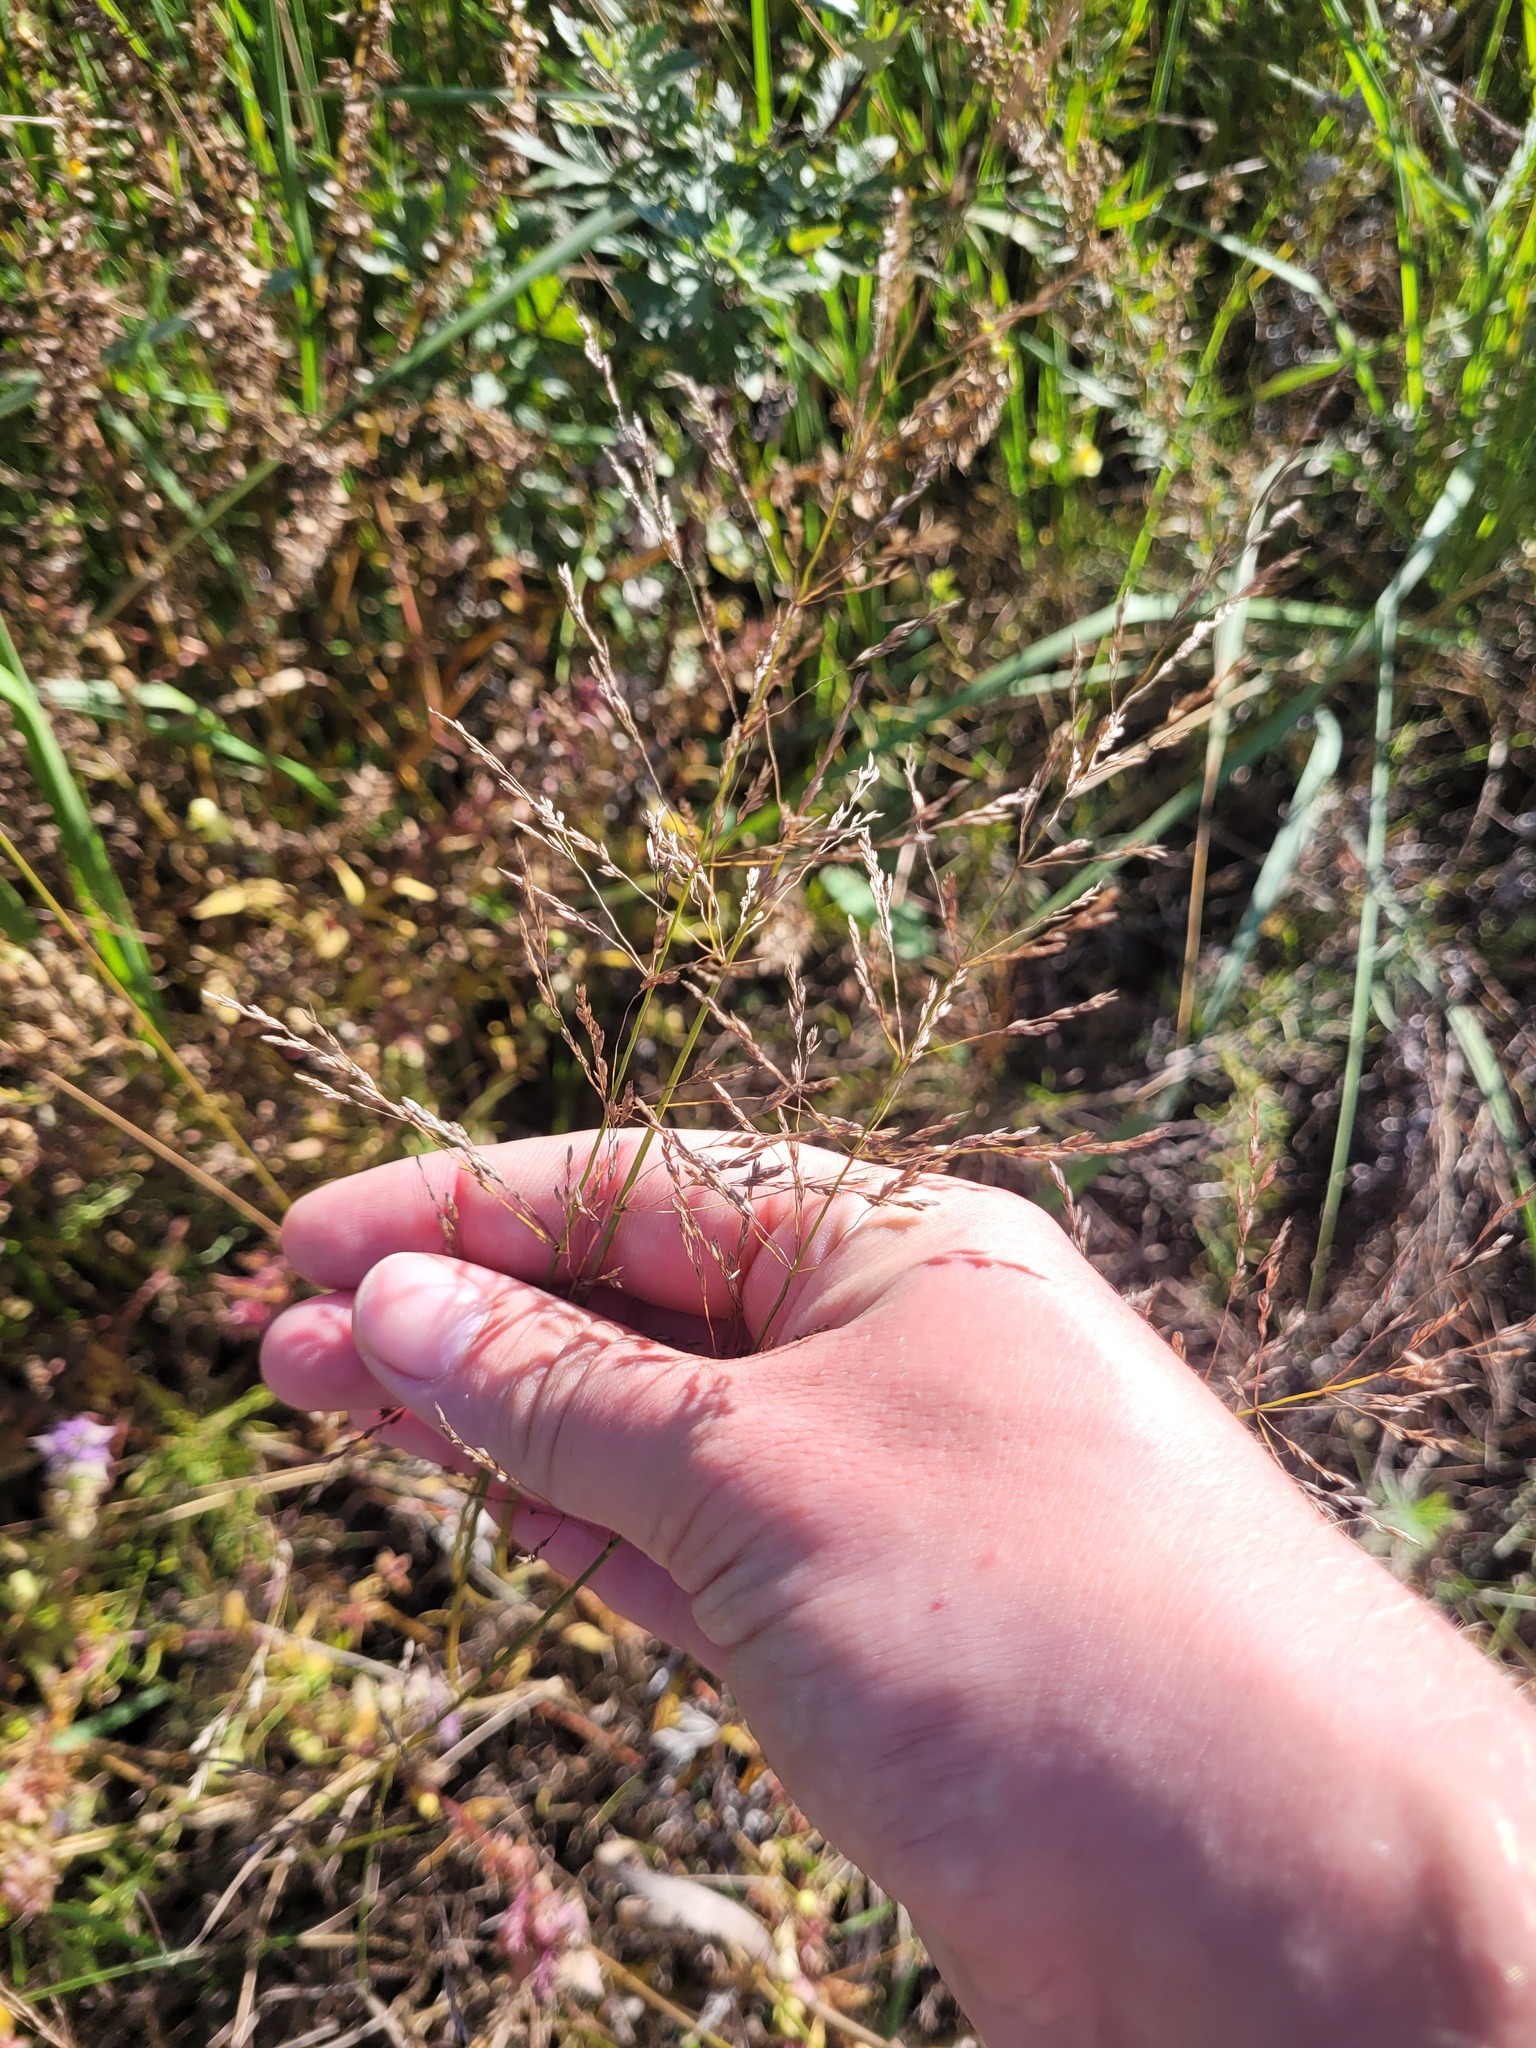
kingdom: Plantae
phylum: Tracheophyta
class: Liliopsida
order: Poales
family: Poaceae
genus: Poa
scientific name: Poa palustris
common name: Swamp meadow-grass
